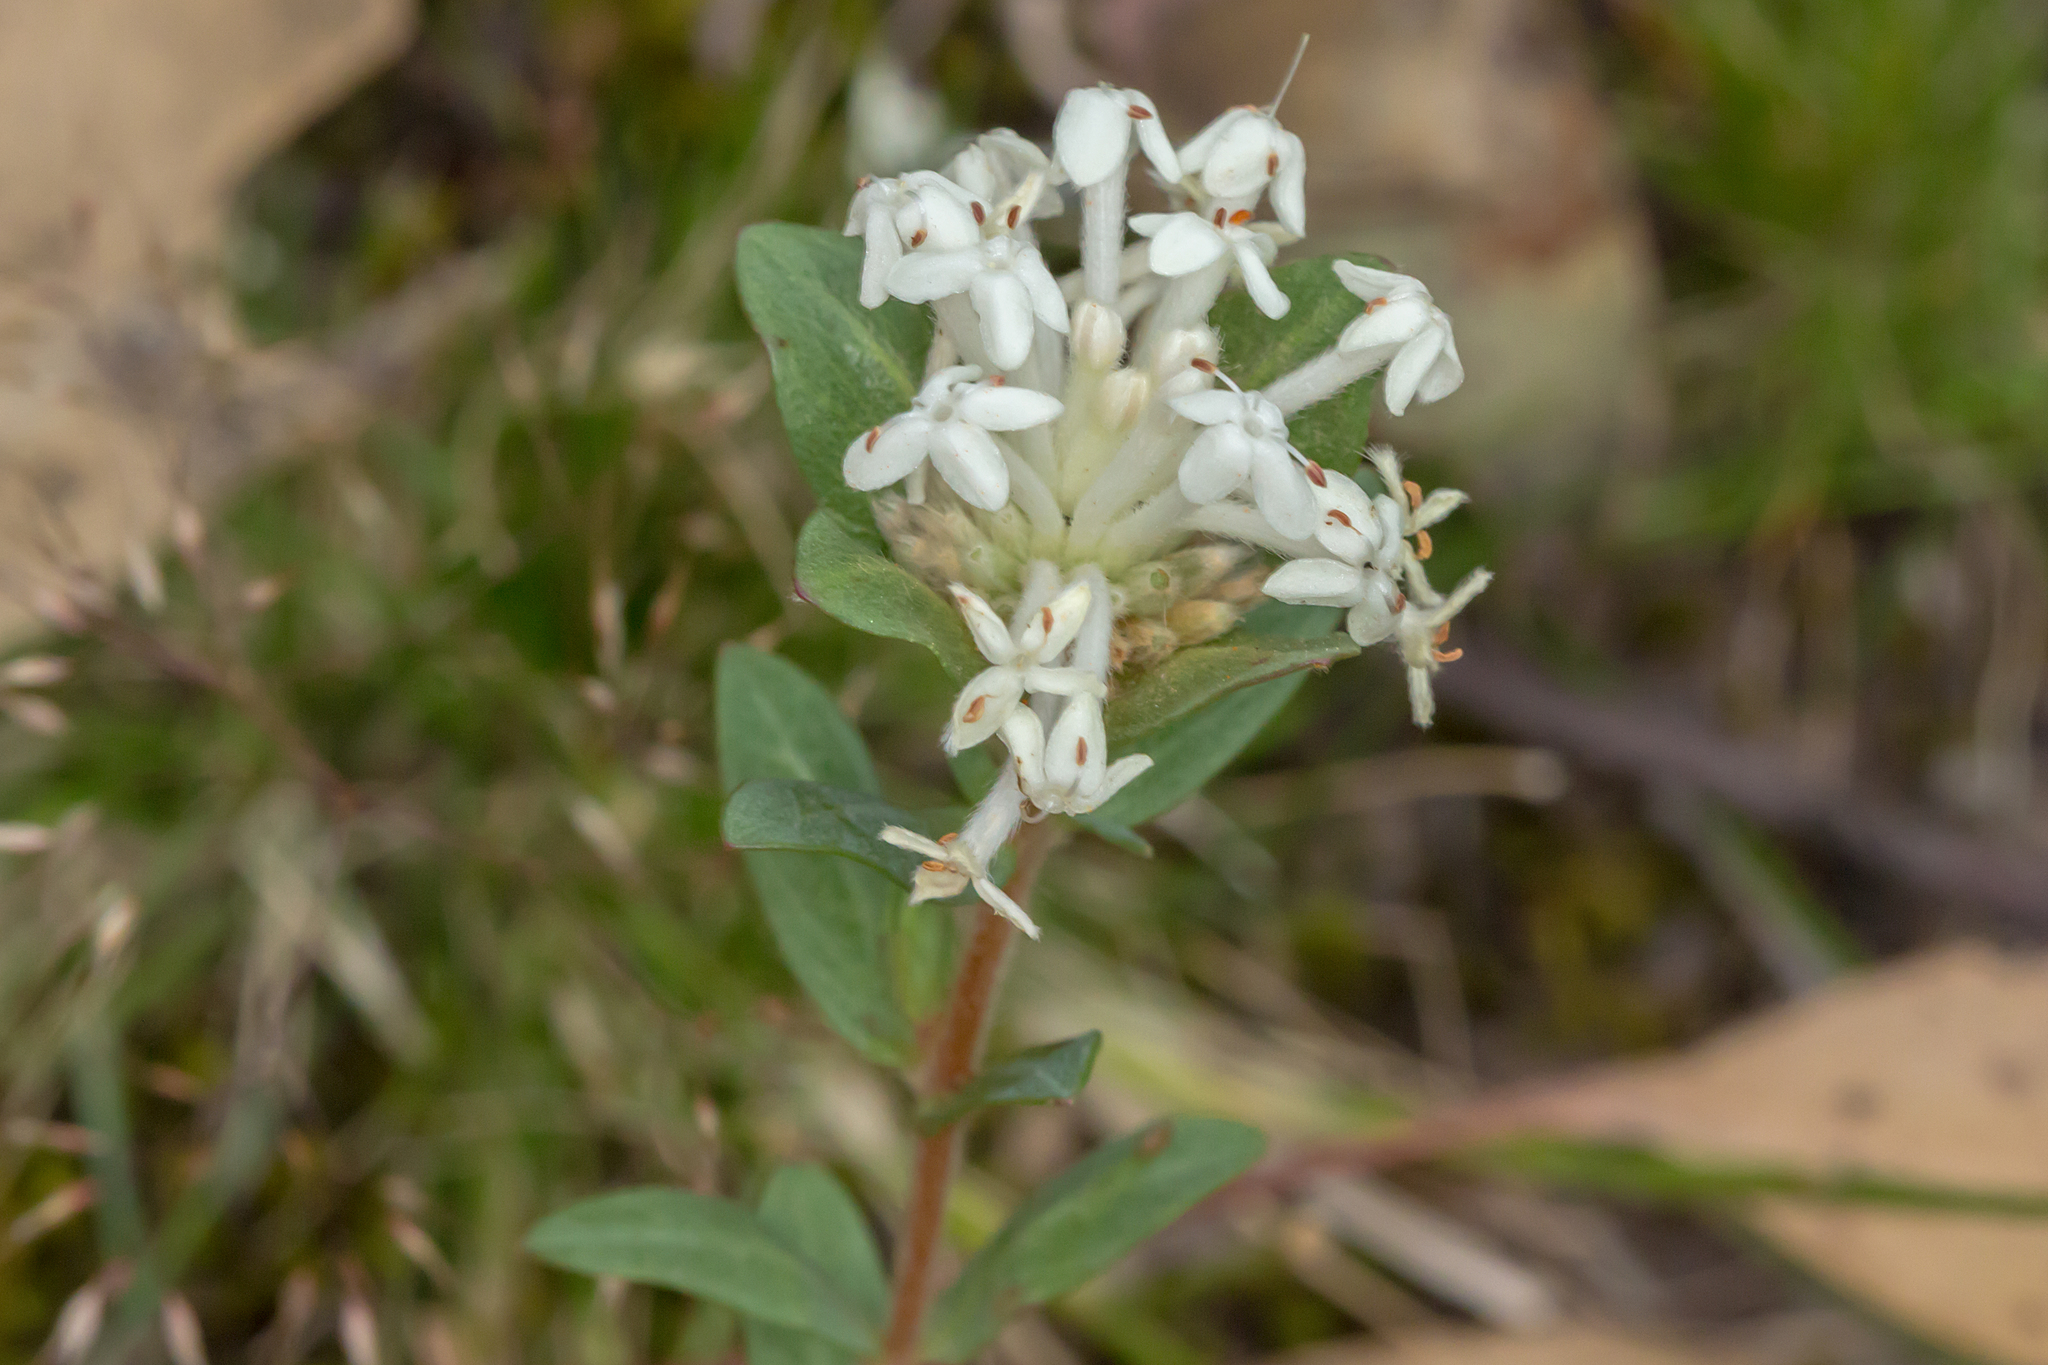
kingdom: Plantae
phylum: Tracheophyta
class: Magnoliopsida
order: Malvales
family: Thymelaeaceae
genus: Pimelea
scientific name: Pimelea humilis
